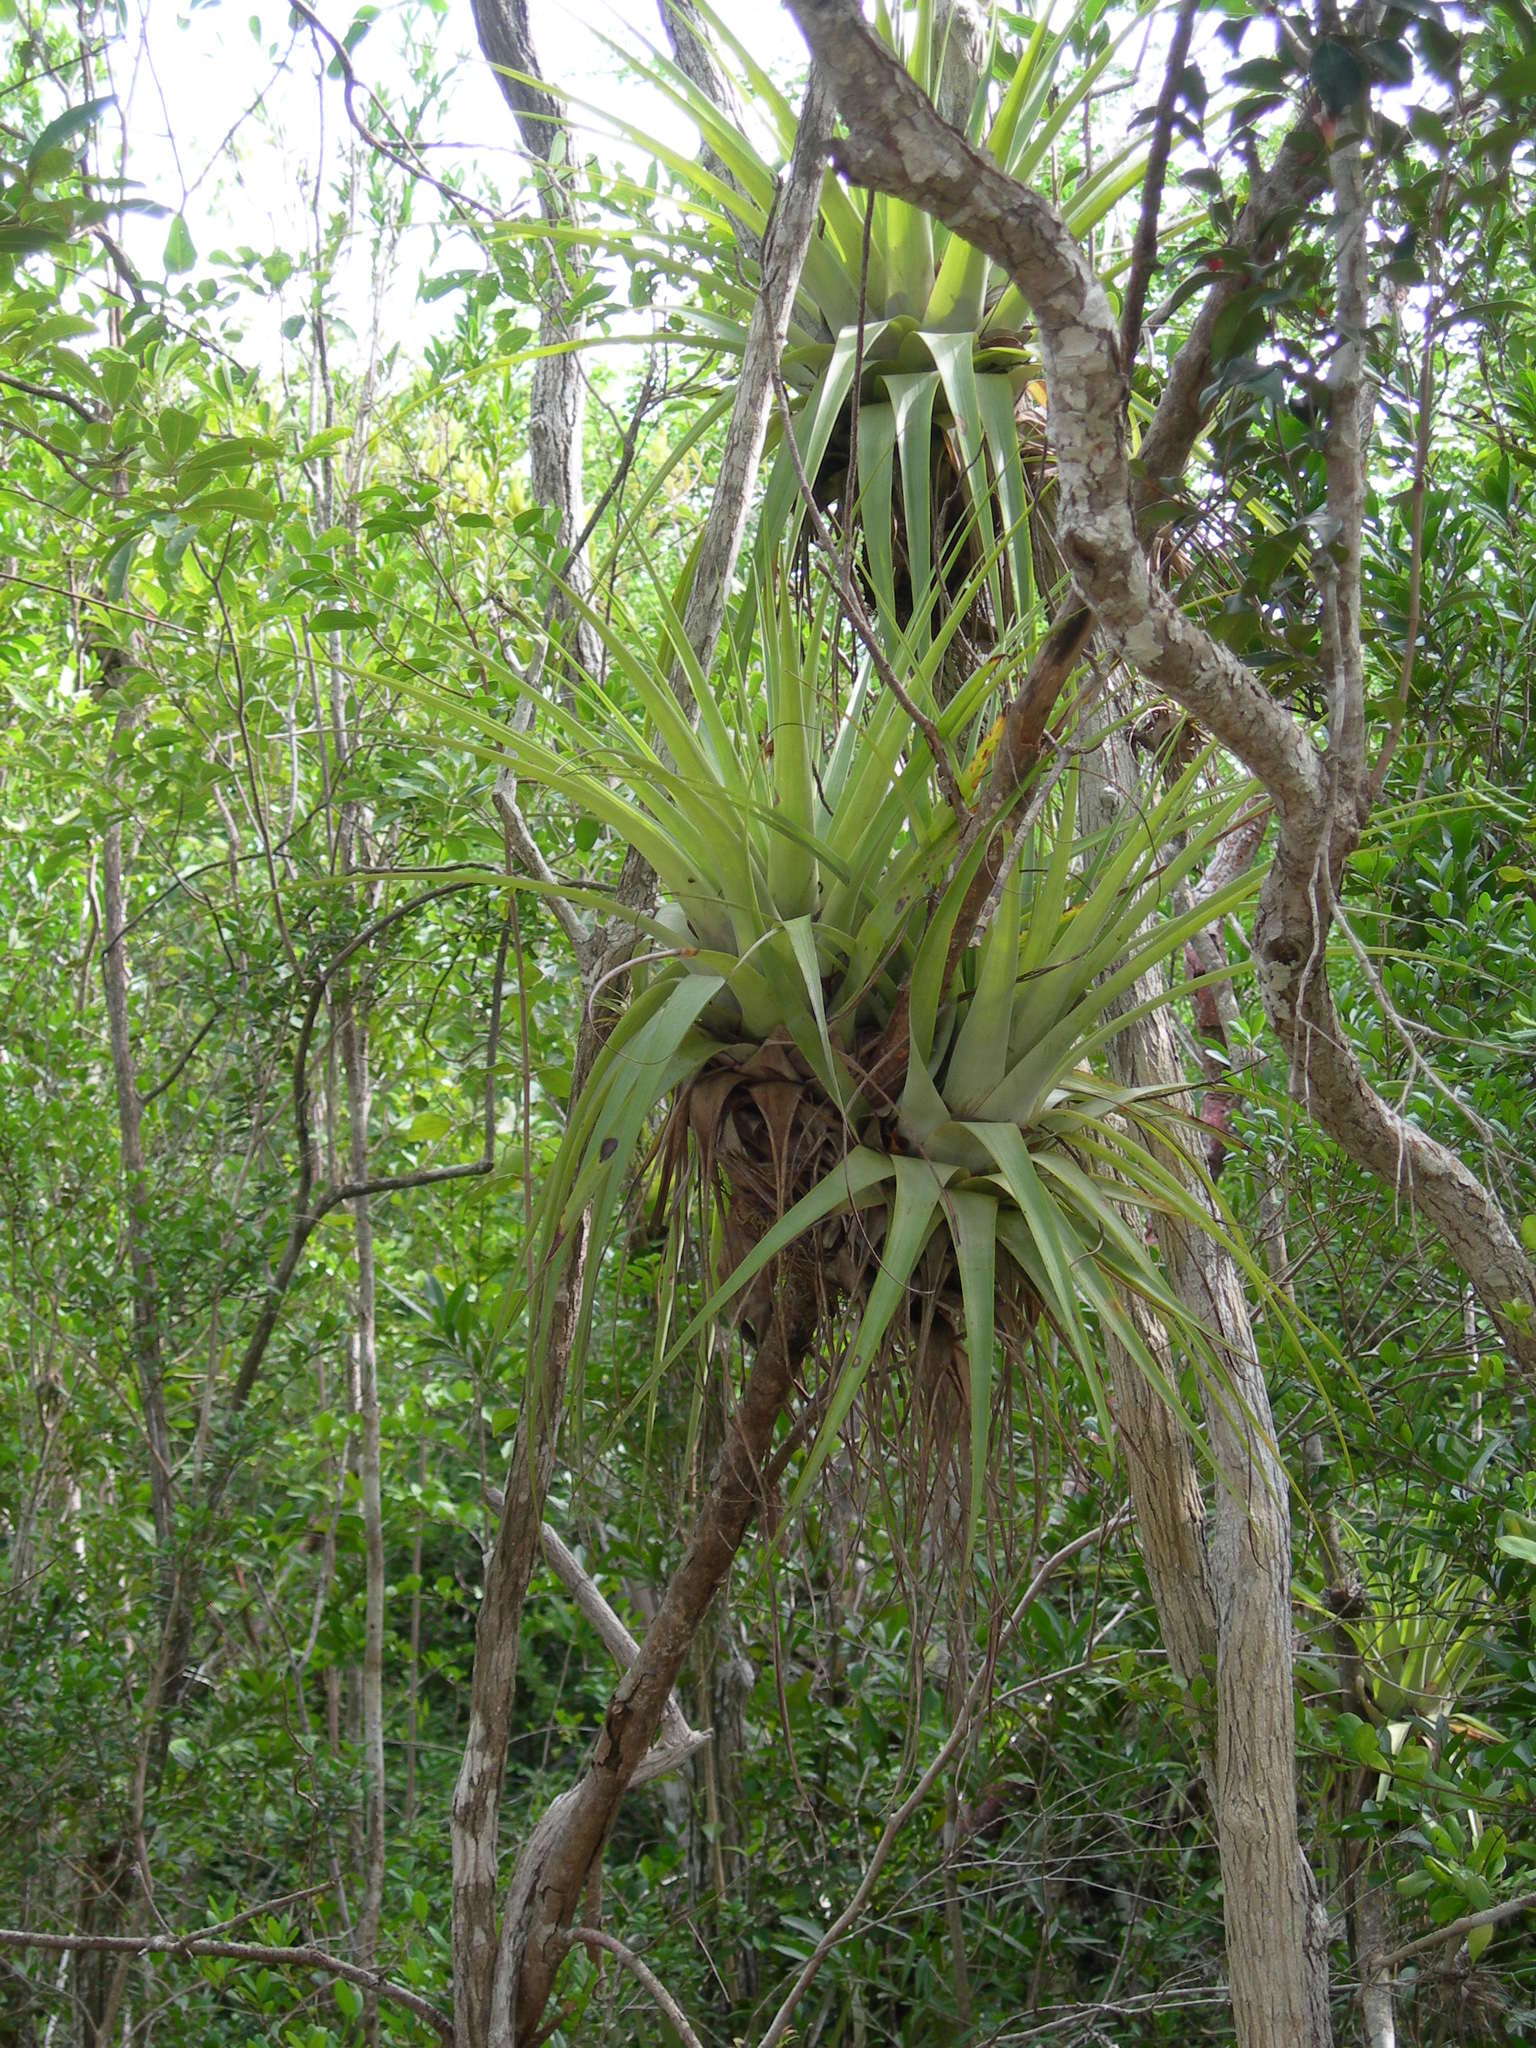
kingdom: Plantae
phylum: Tracheophyta
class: Liliopsida
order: Poales
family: Bromeliaceae
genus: Tillandsia
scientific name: Tillandsia utriculata
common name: Wild pine
